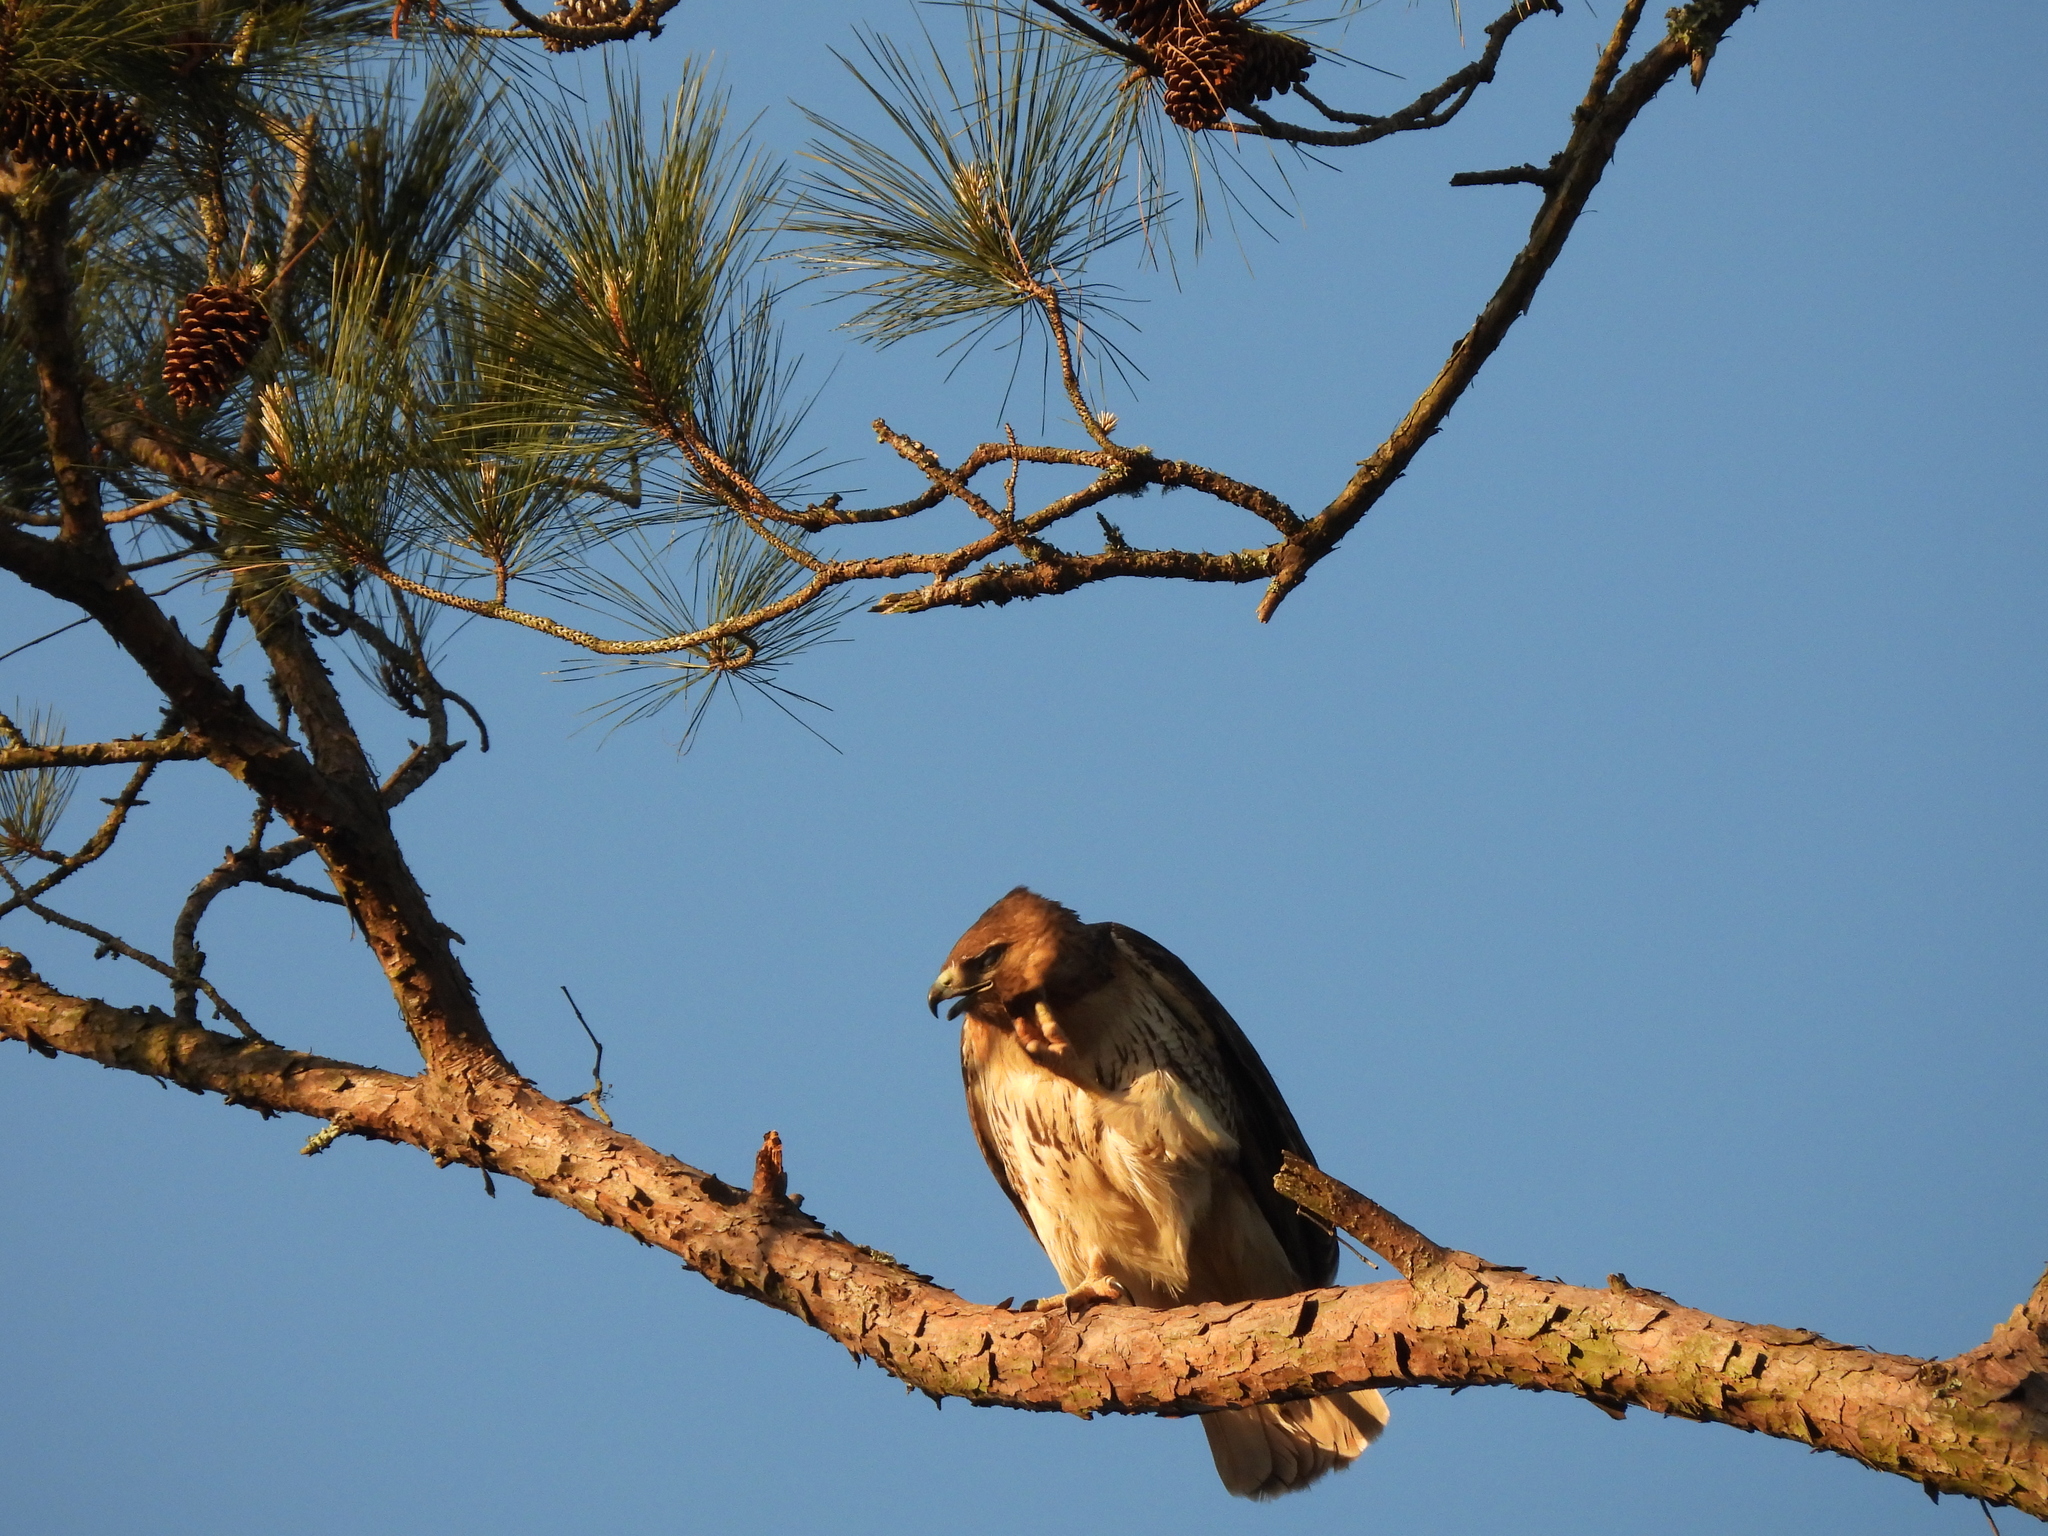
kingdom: Animalia
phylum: Chordata
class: Aves
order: Accipitriformes
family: Accipitridae
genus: Buteo
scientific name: Buteo jamaicensis
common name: Red-tailed hawk
